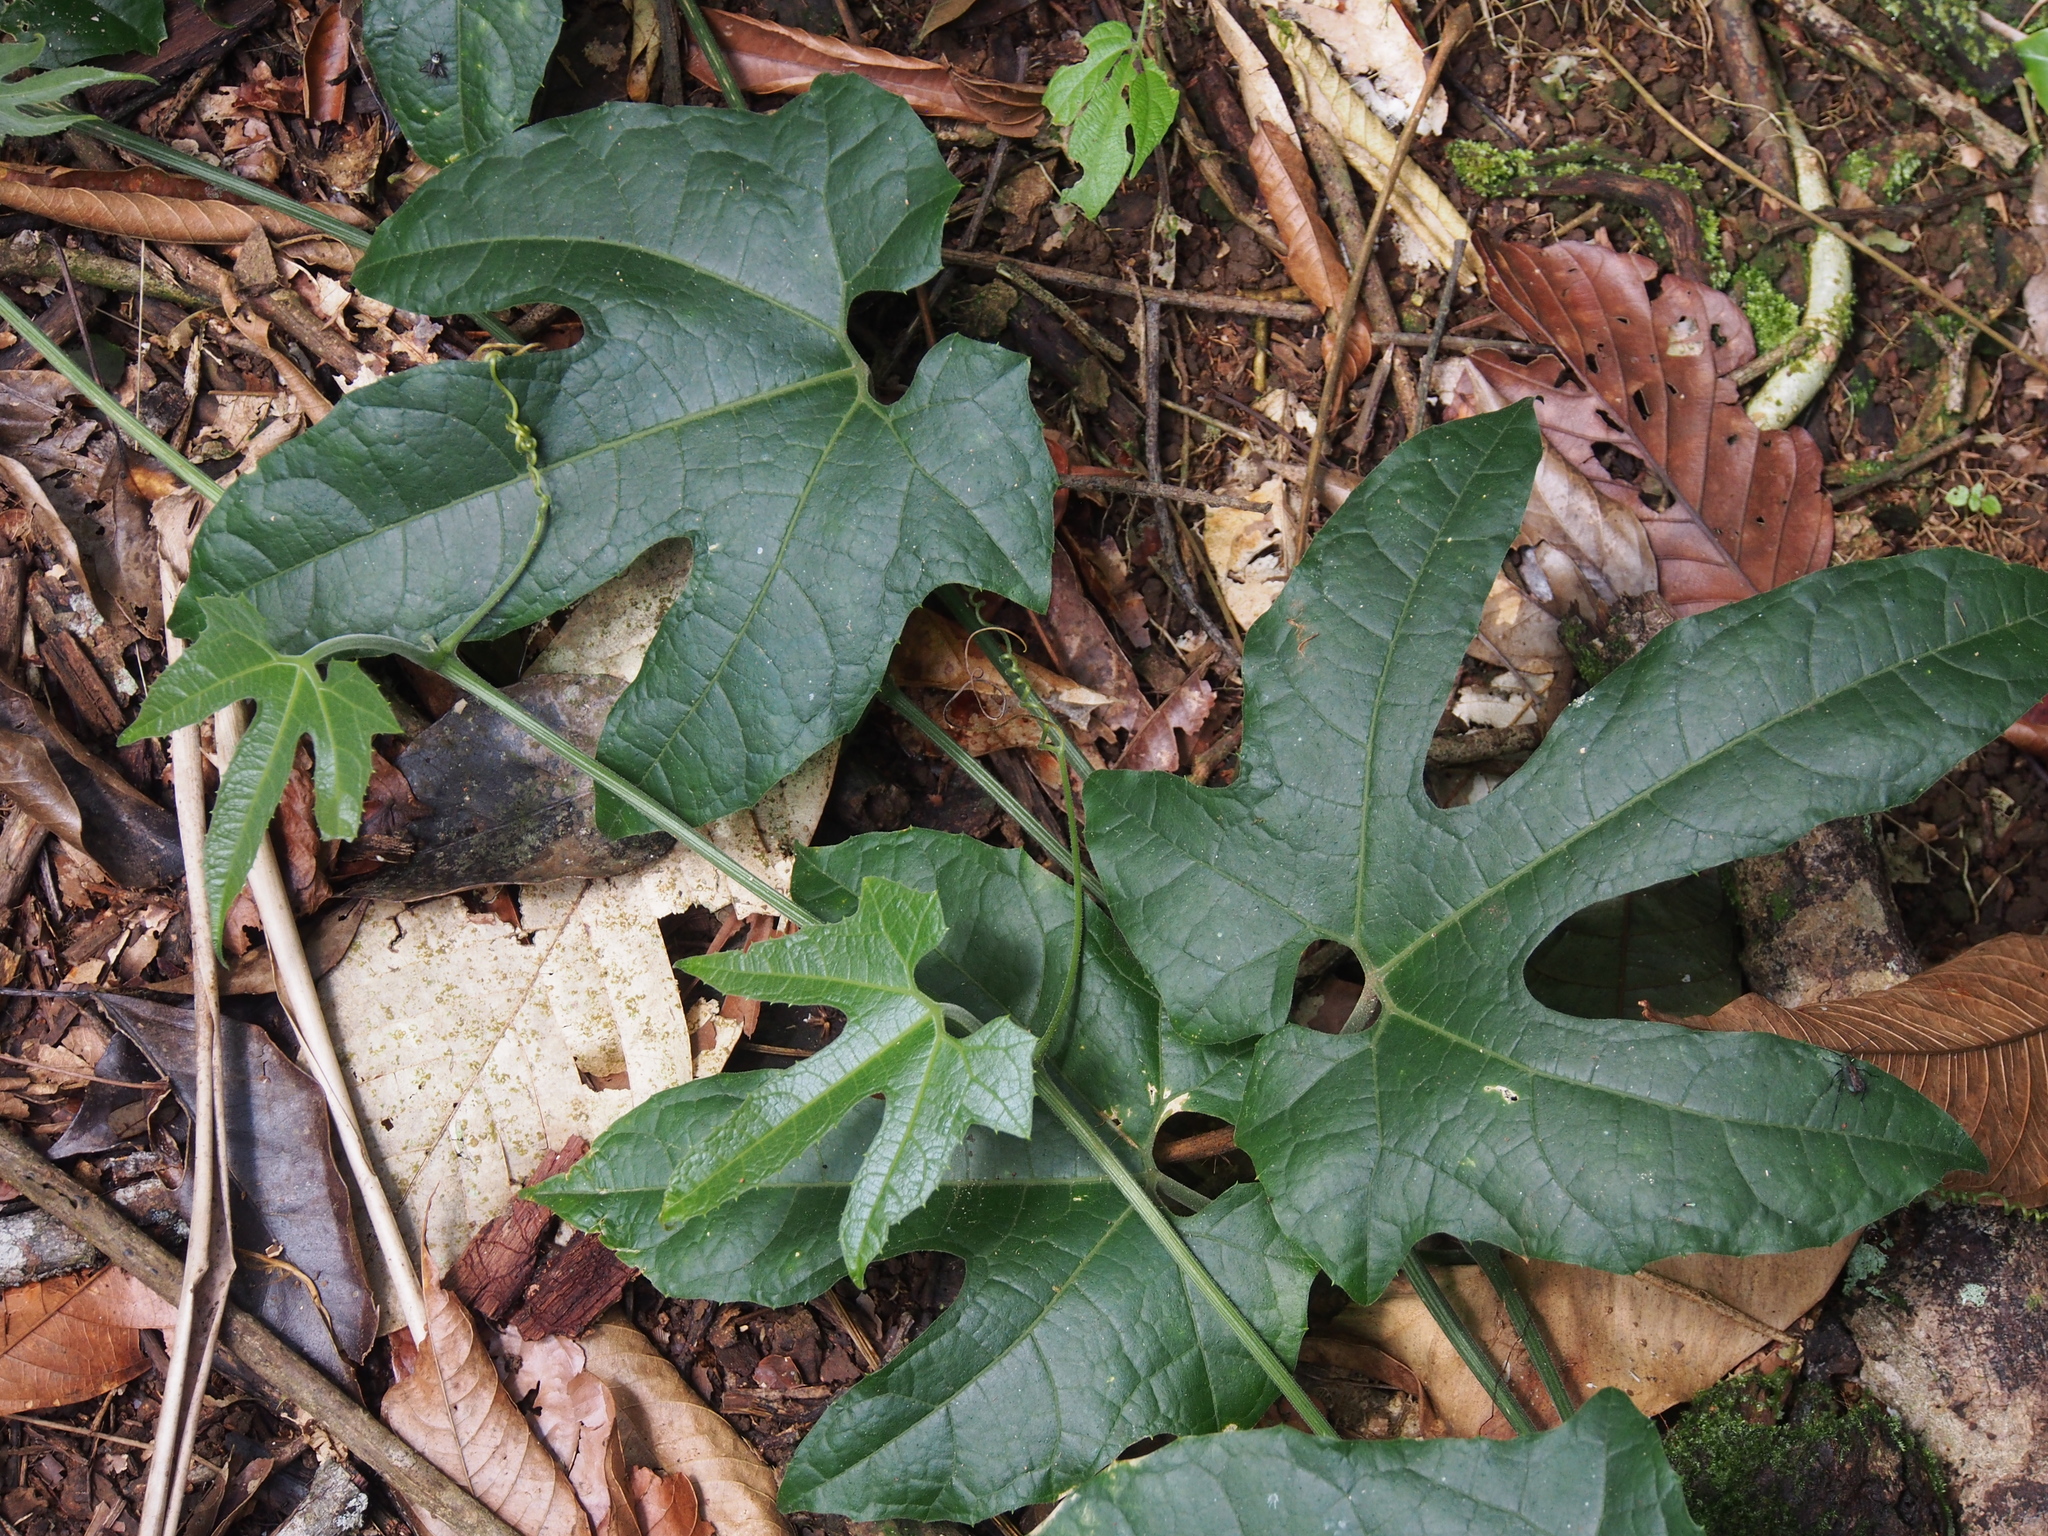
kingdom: Plantae
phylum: Tracheophyta
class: Magnoliopsida
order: Cucurbitales
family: Cucurbitaceae
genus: Gurania
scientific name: Gurania makoyana
